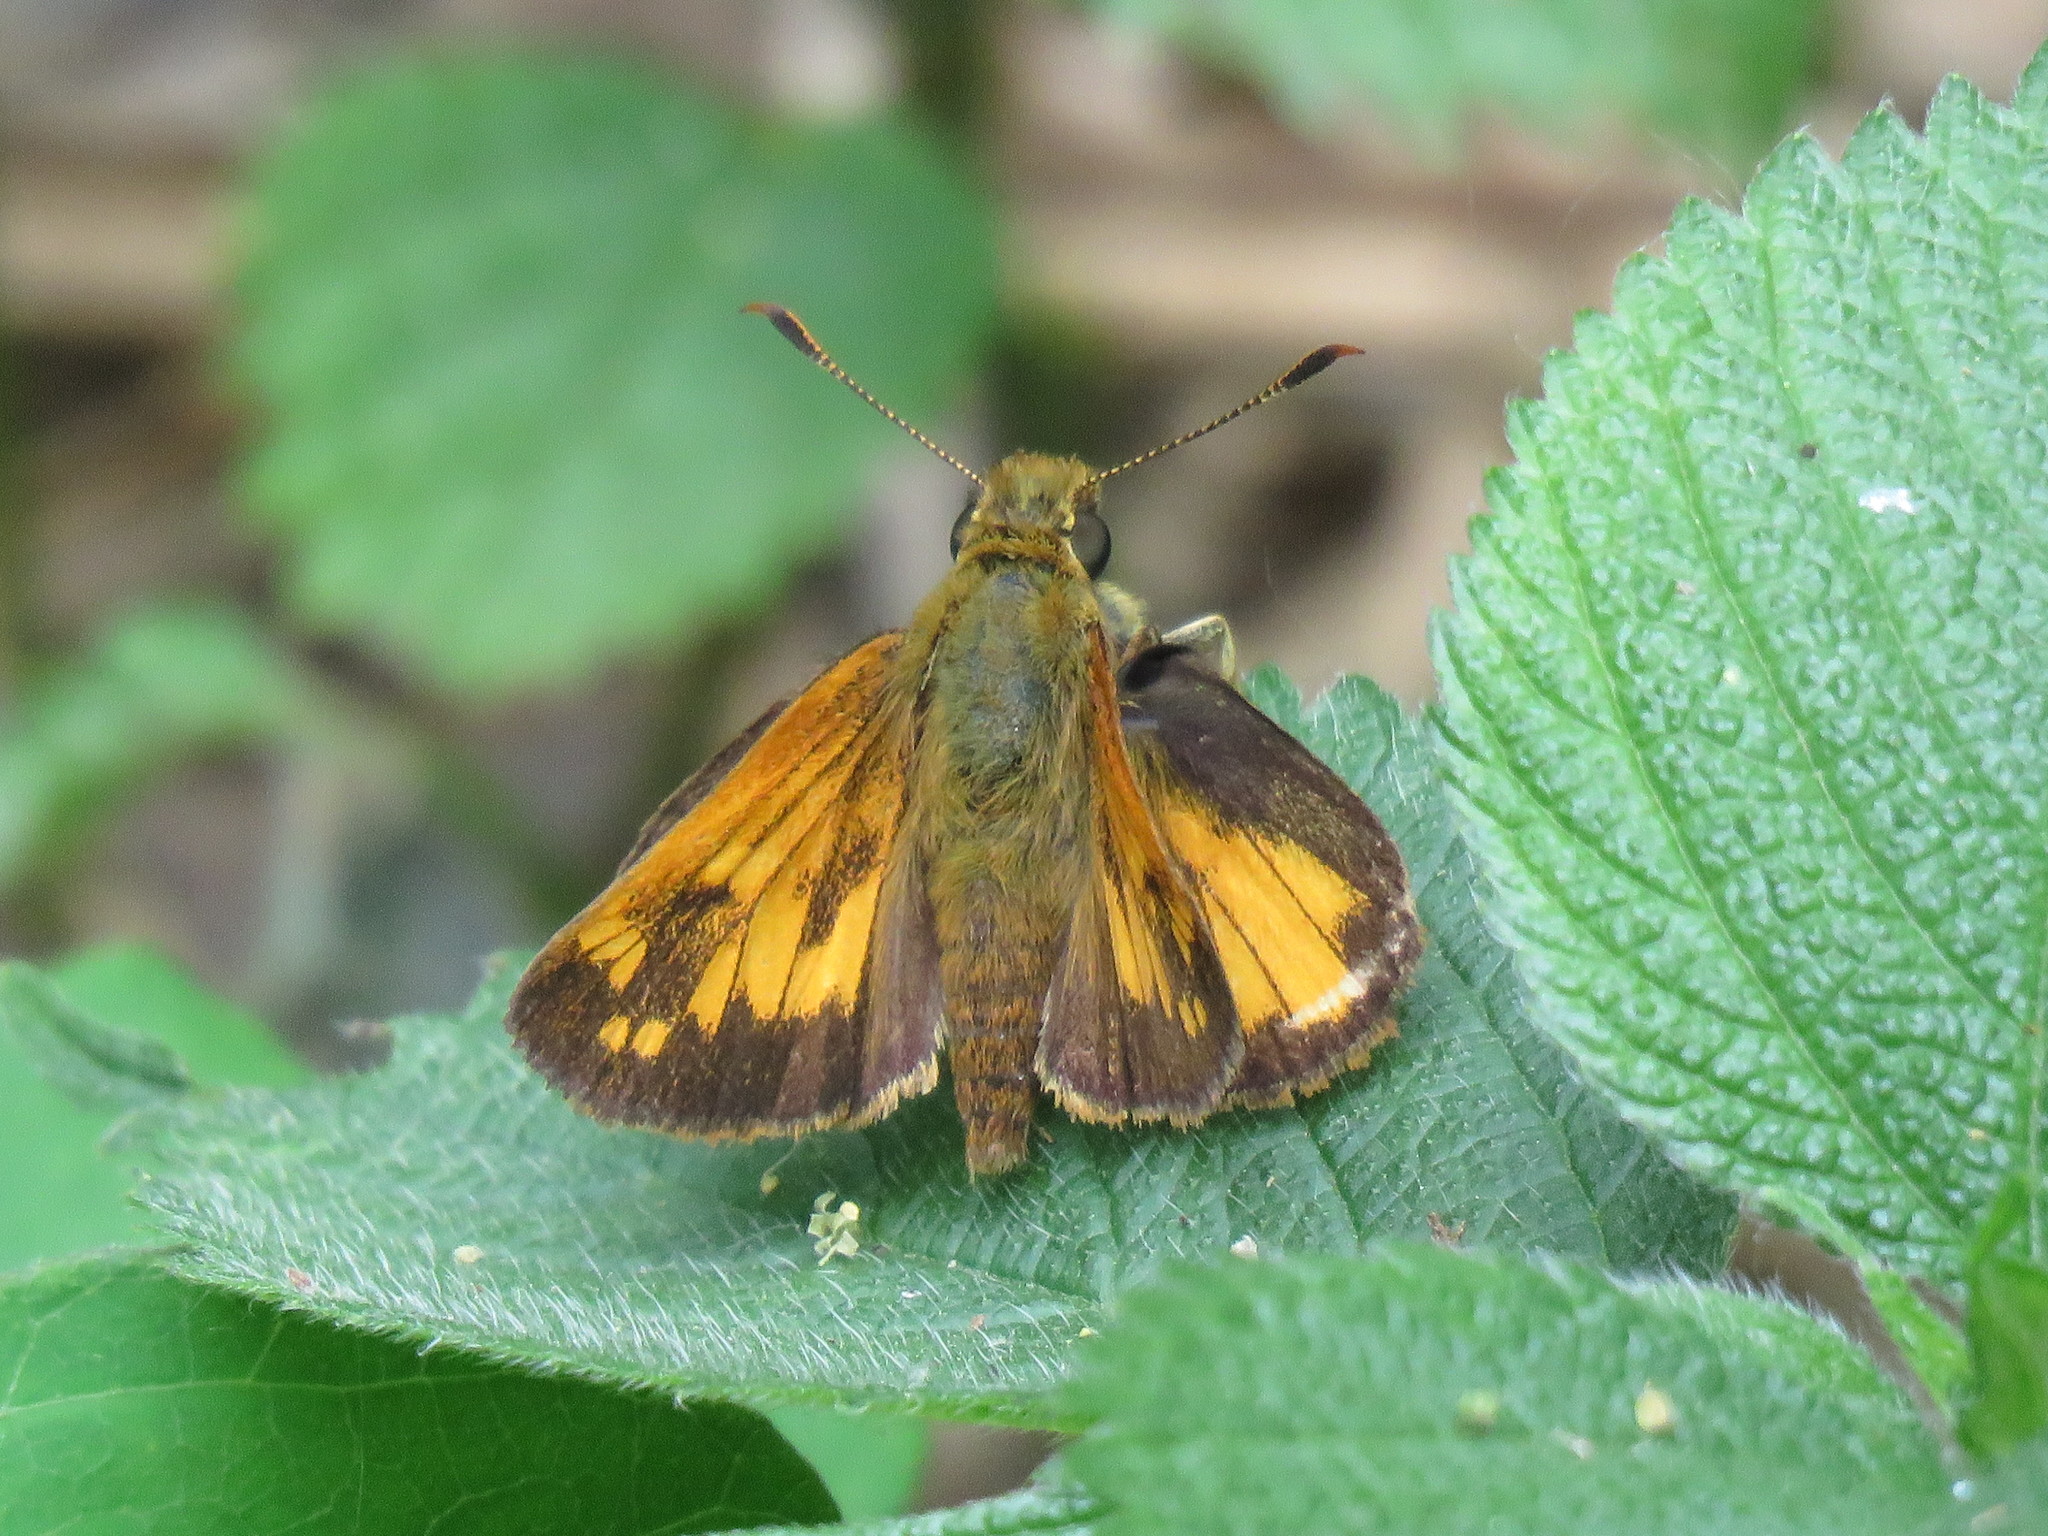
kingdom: Animalia
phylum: Arthropoda
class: Insecta
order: Lepidoptera
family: Hesperiidae
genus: Lon
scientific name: Lon hobomok
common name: Hobomok skipper
